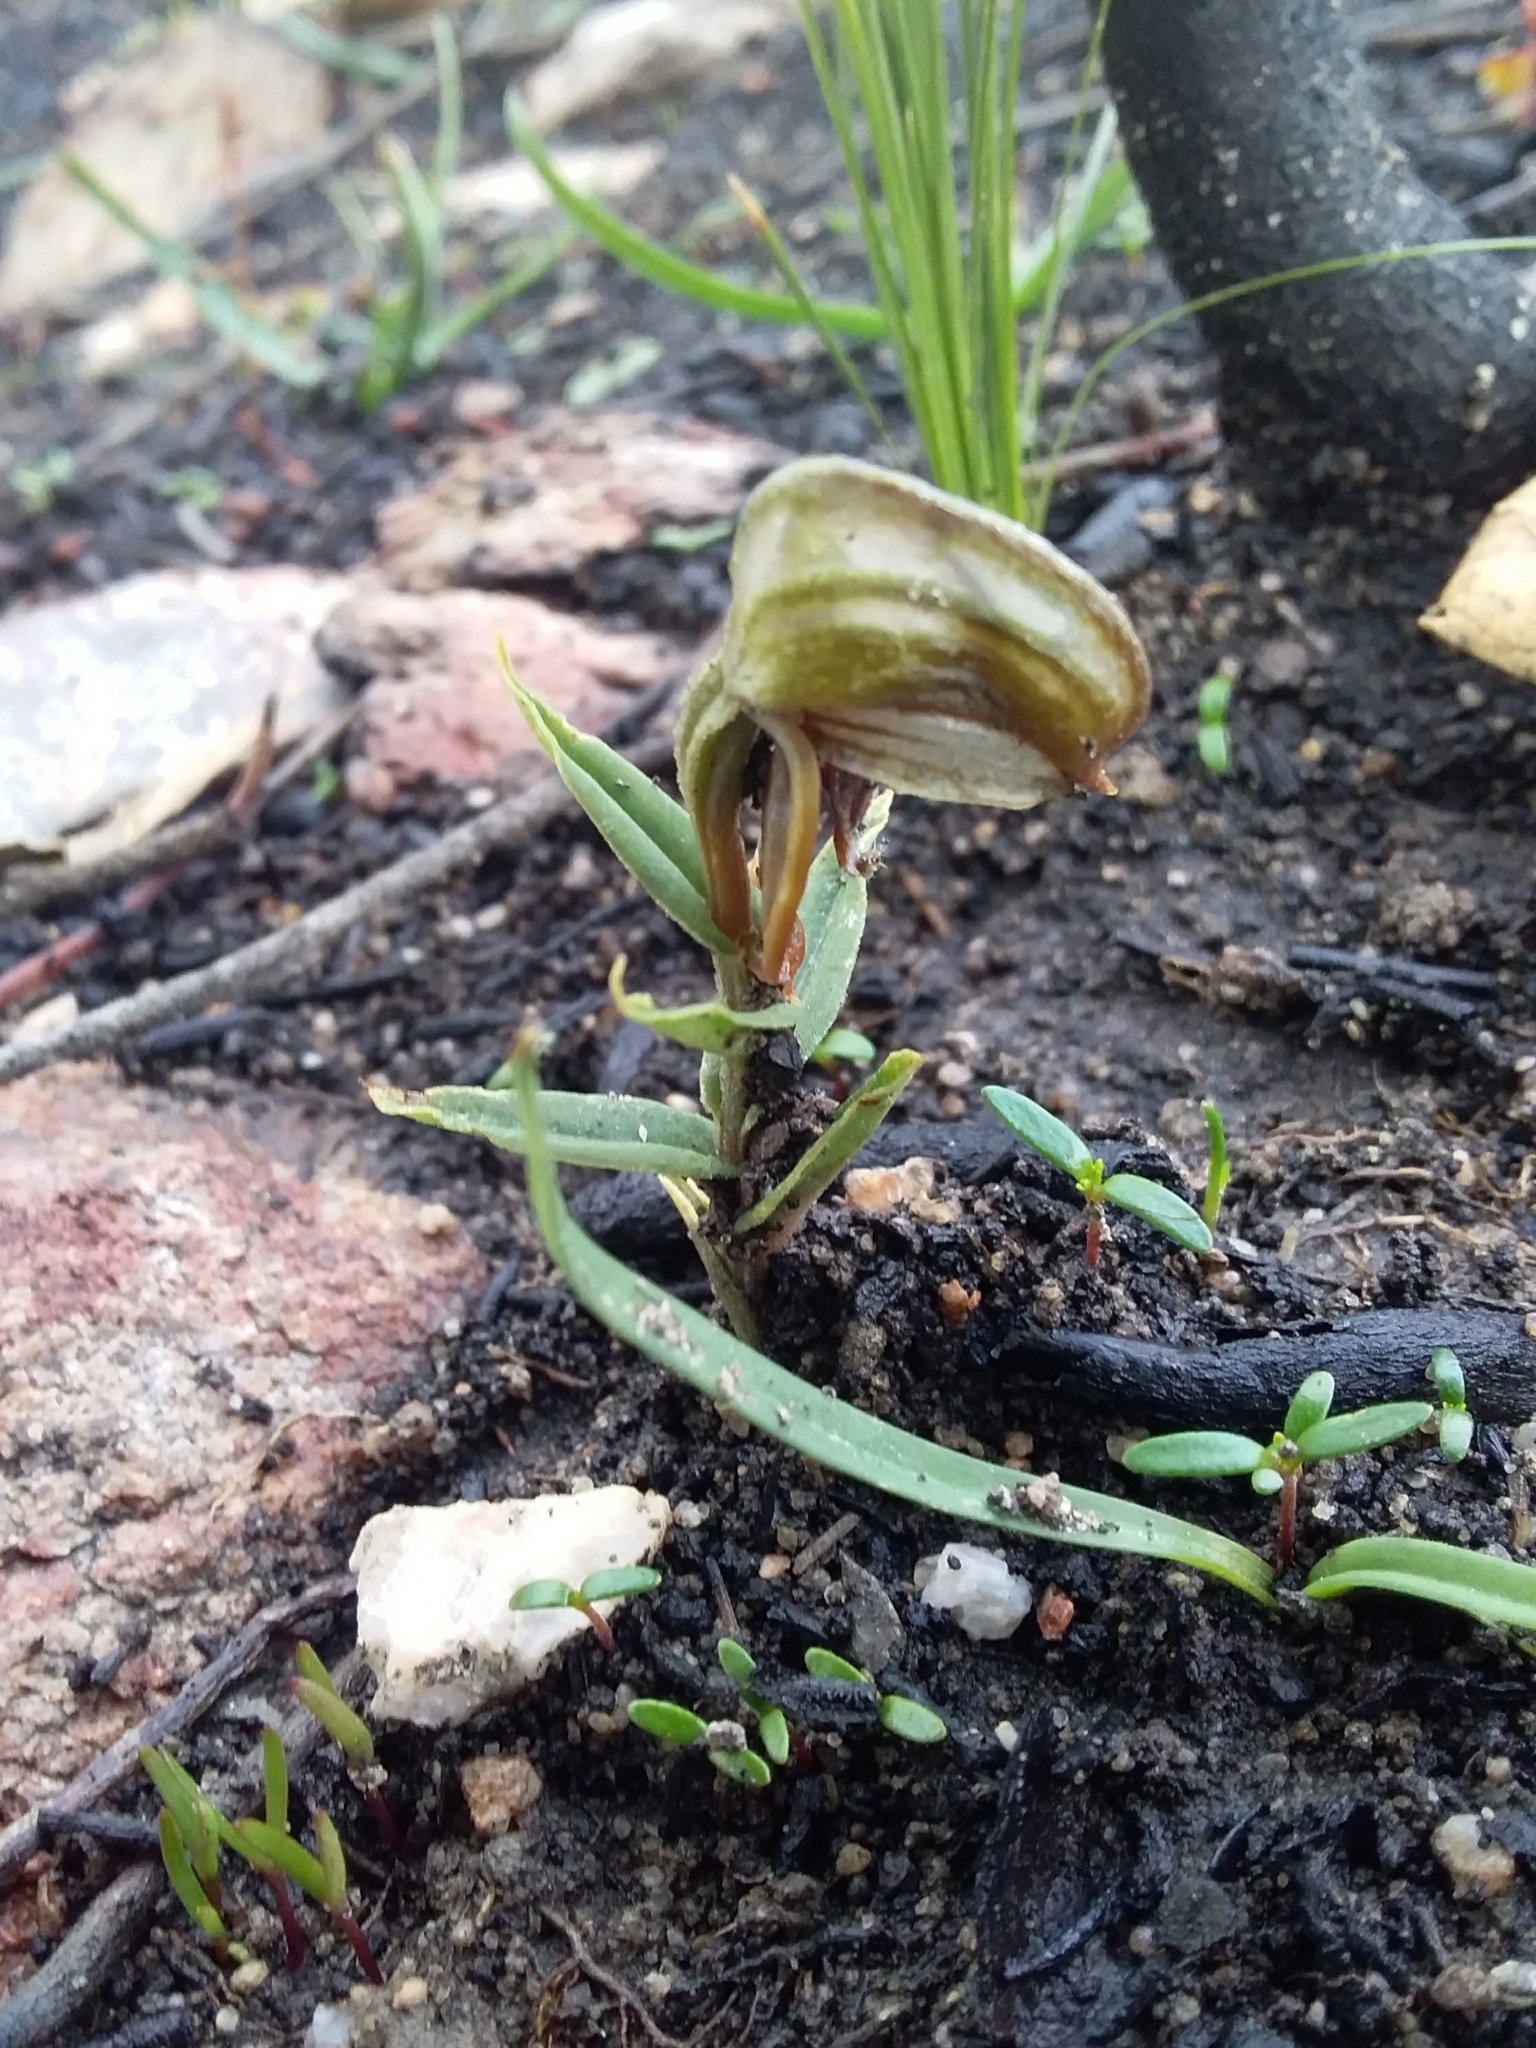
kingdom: Plantae
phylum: Tracheophyta
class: Liliopsida
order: Asparagales
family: Orchidaceae
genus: Pterostylis
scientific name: Pterostylis sanguinea
